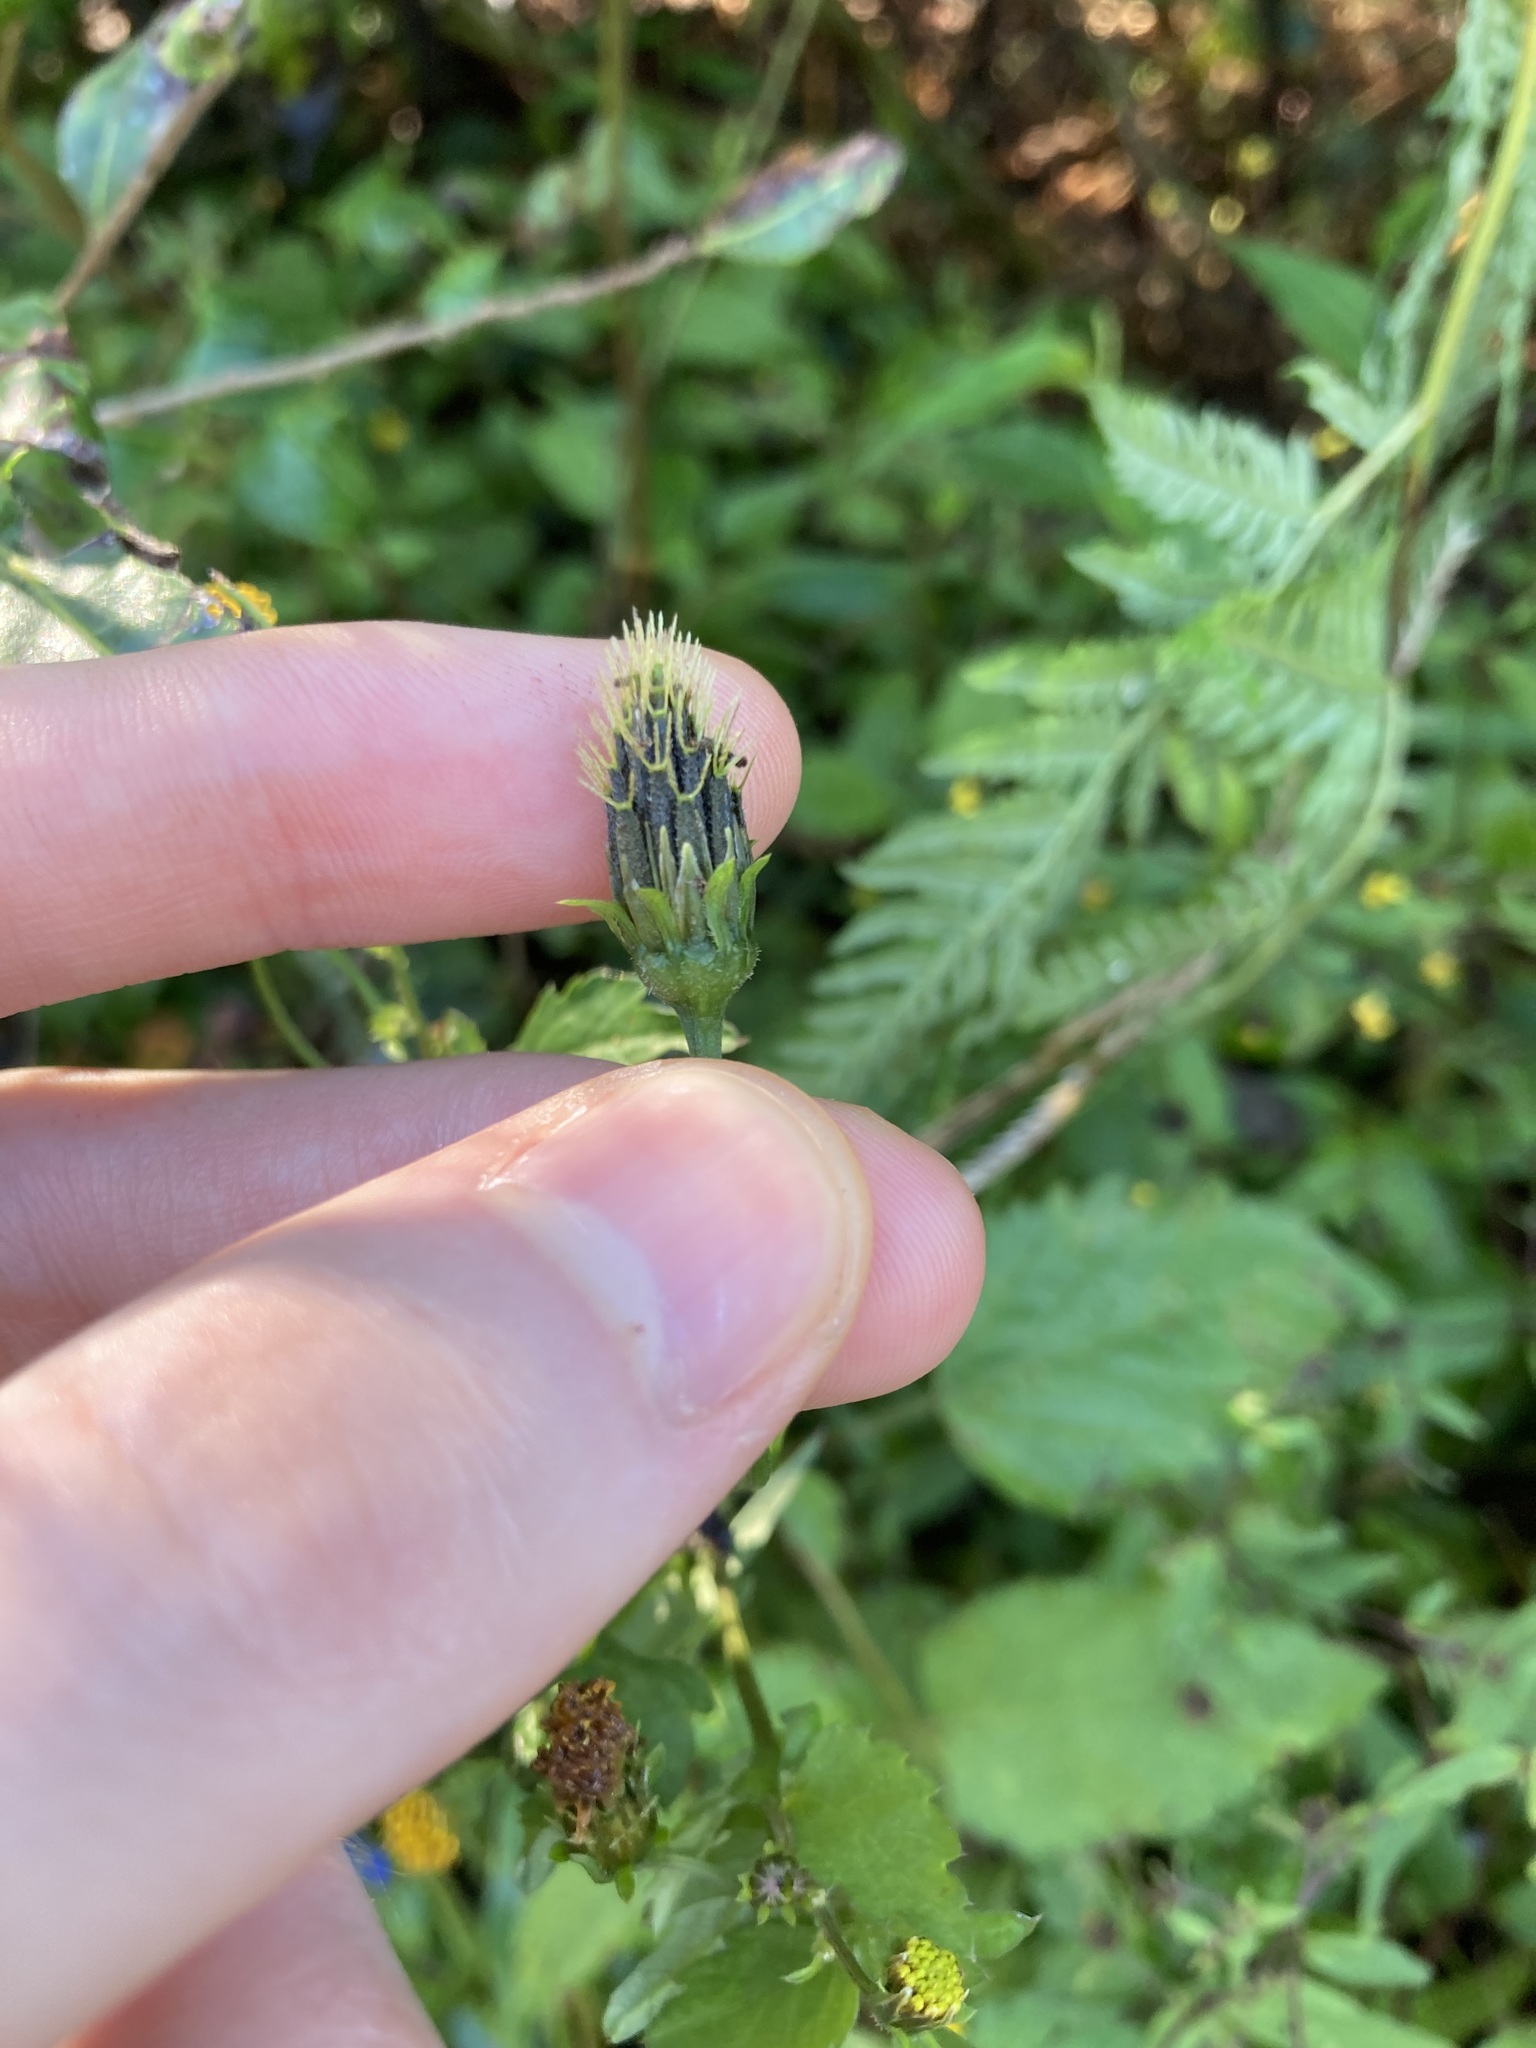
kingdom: Plantae
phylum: Tracheophyta
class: Magnoliopsida
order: Asterales
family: Asteraceae
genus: Bidens
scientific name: Bidens pilosa
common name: Black-jack
